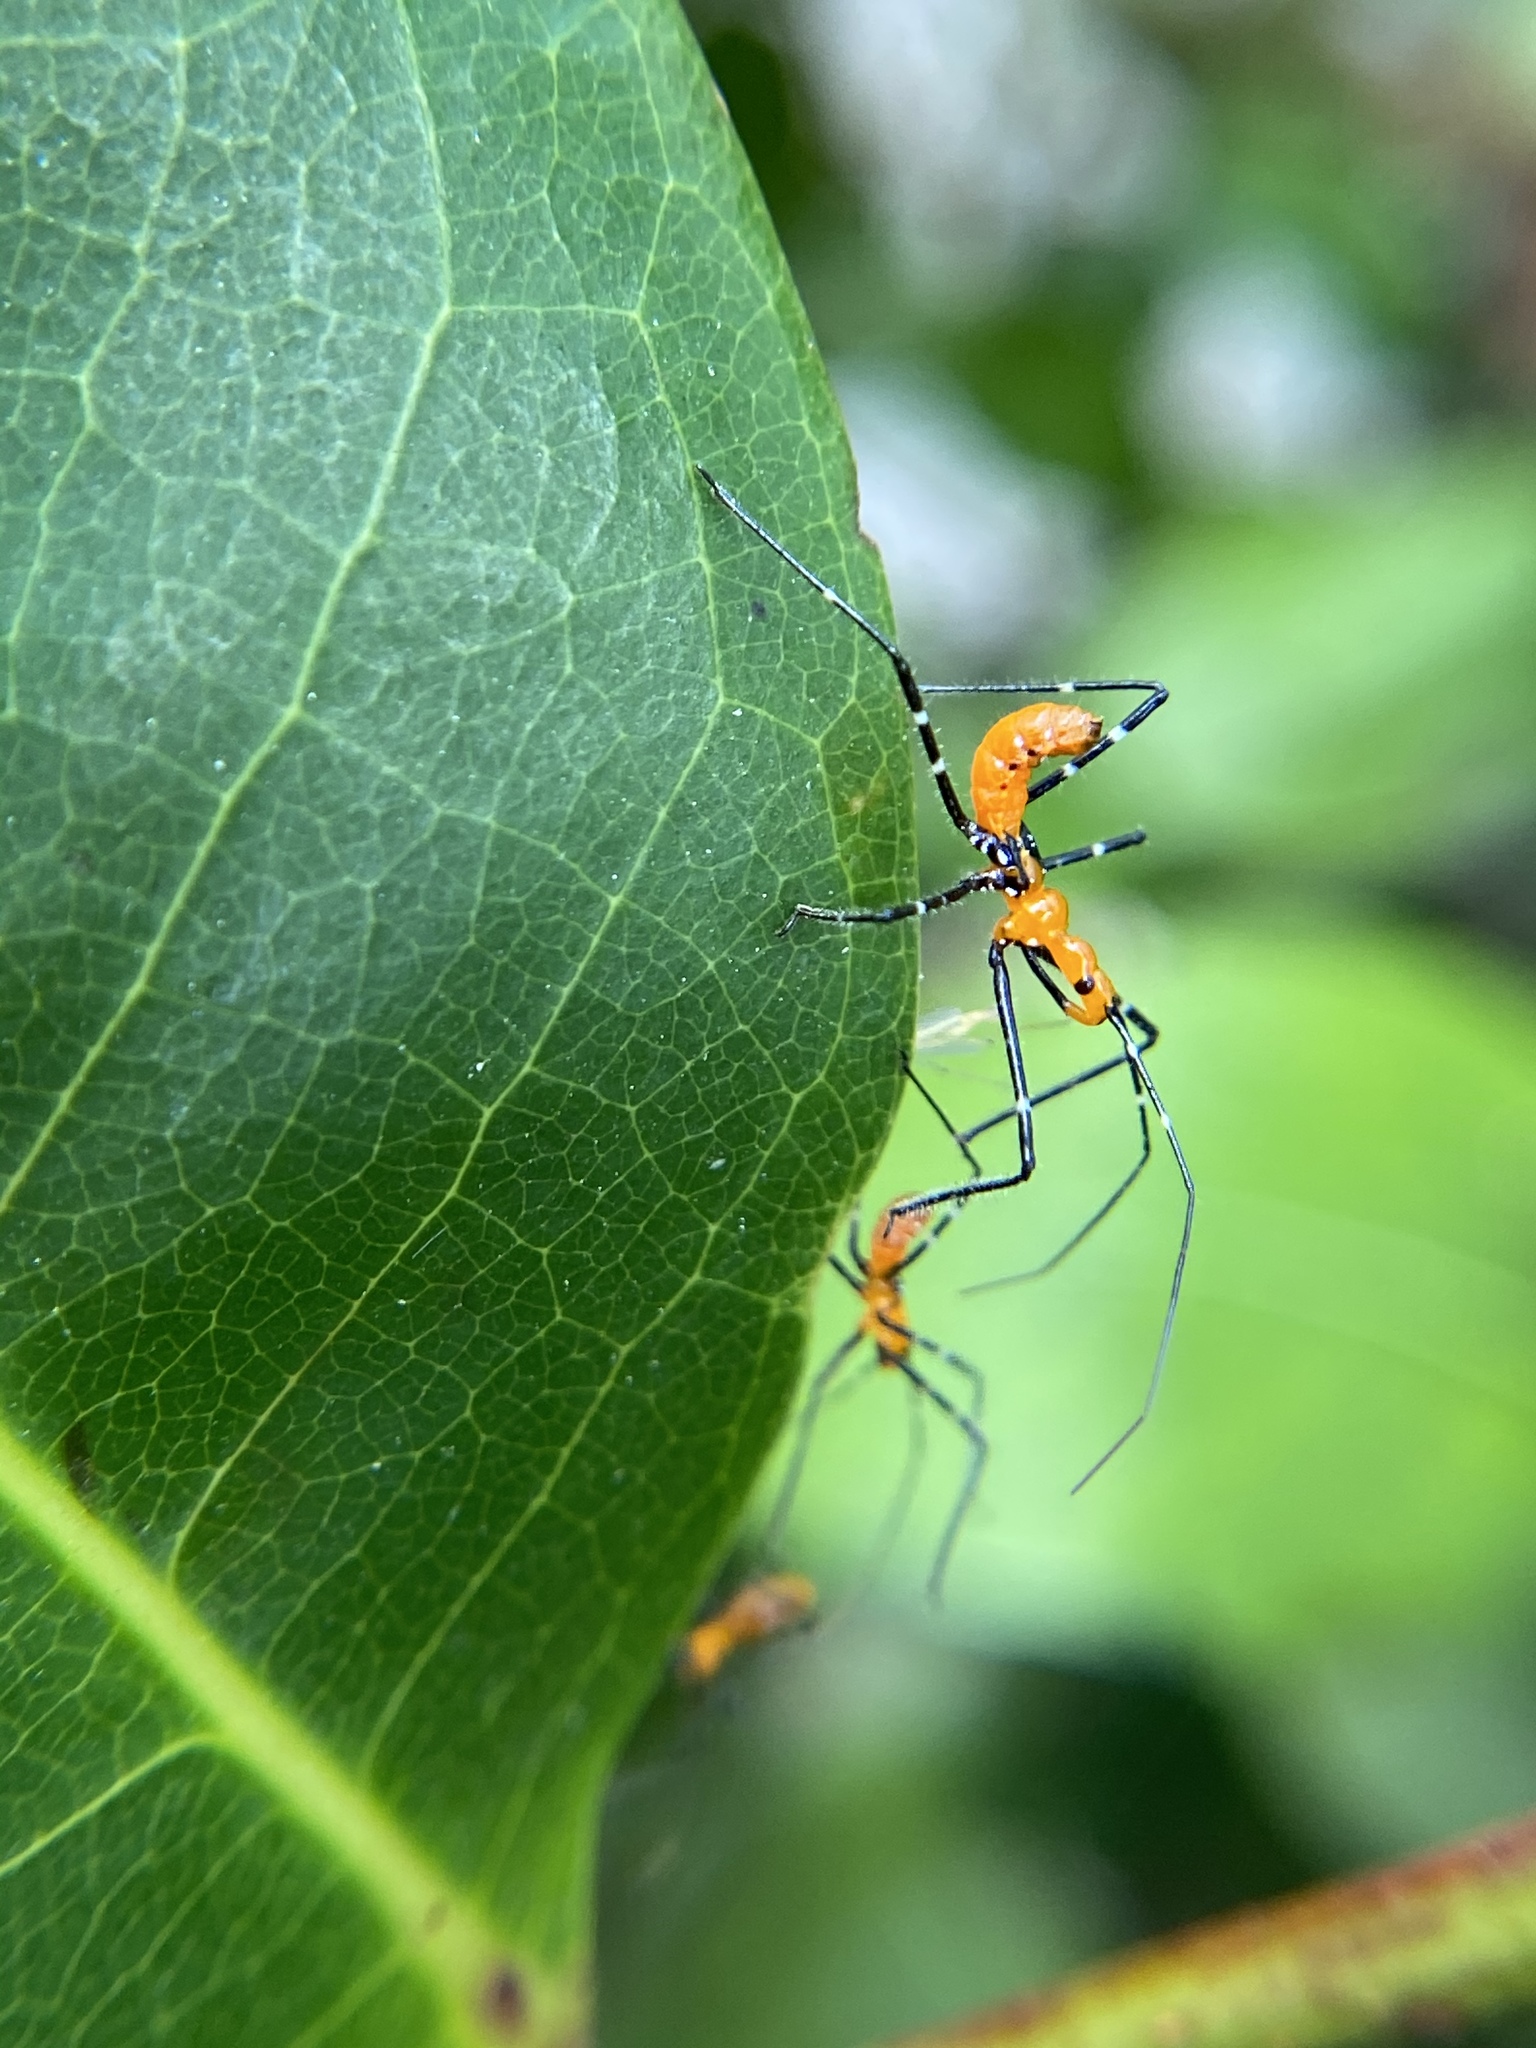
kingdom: Animalia
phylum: Arthropoda
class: Insecta
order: Hemiptera
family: Reduviidae
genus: Zelus
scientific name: Zelus longipes
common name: Milkweed assassin bug
